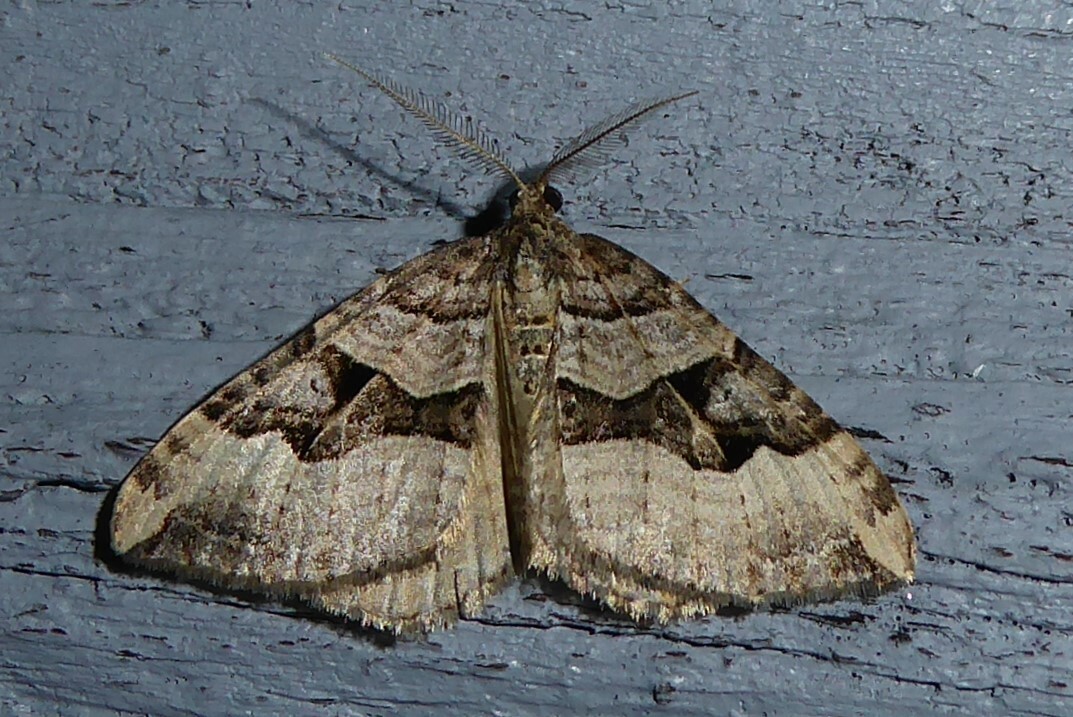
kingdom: Animalia
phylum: Arthropoda
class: Insecta
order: Lepidoptera
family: Geometridae
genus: Xanthorhoe
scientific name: Xanthorhoe semifissata
